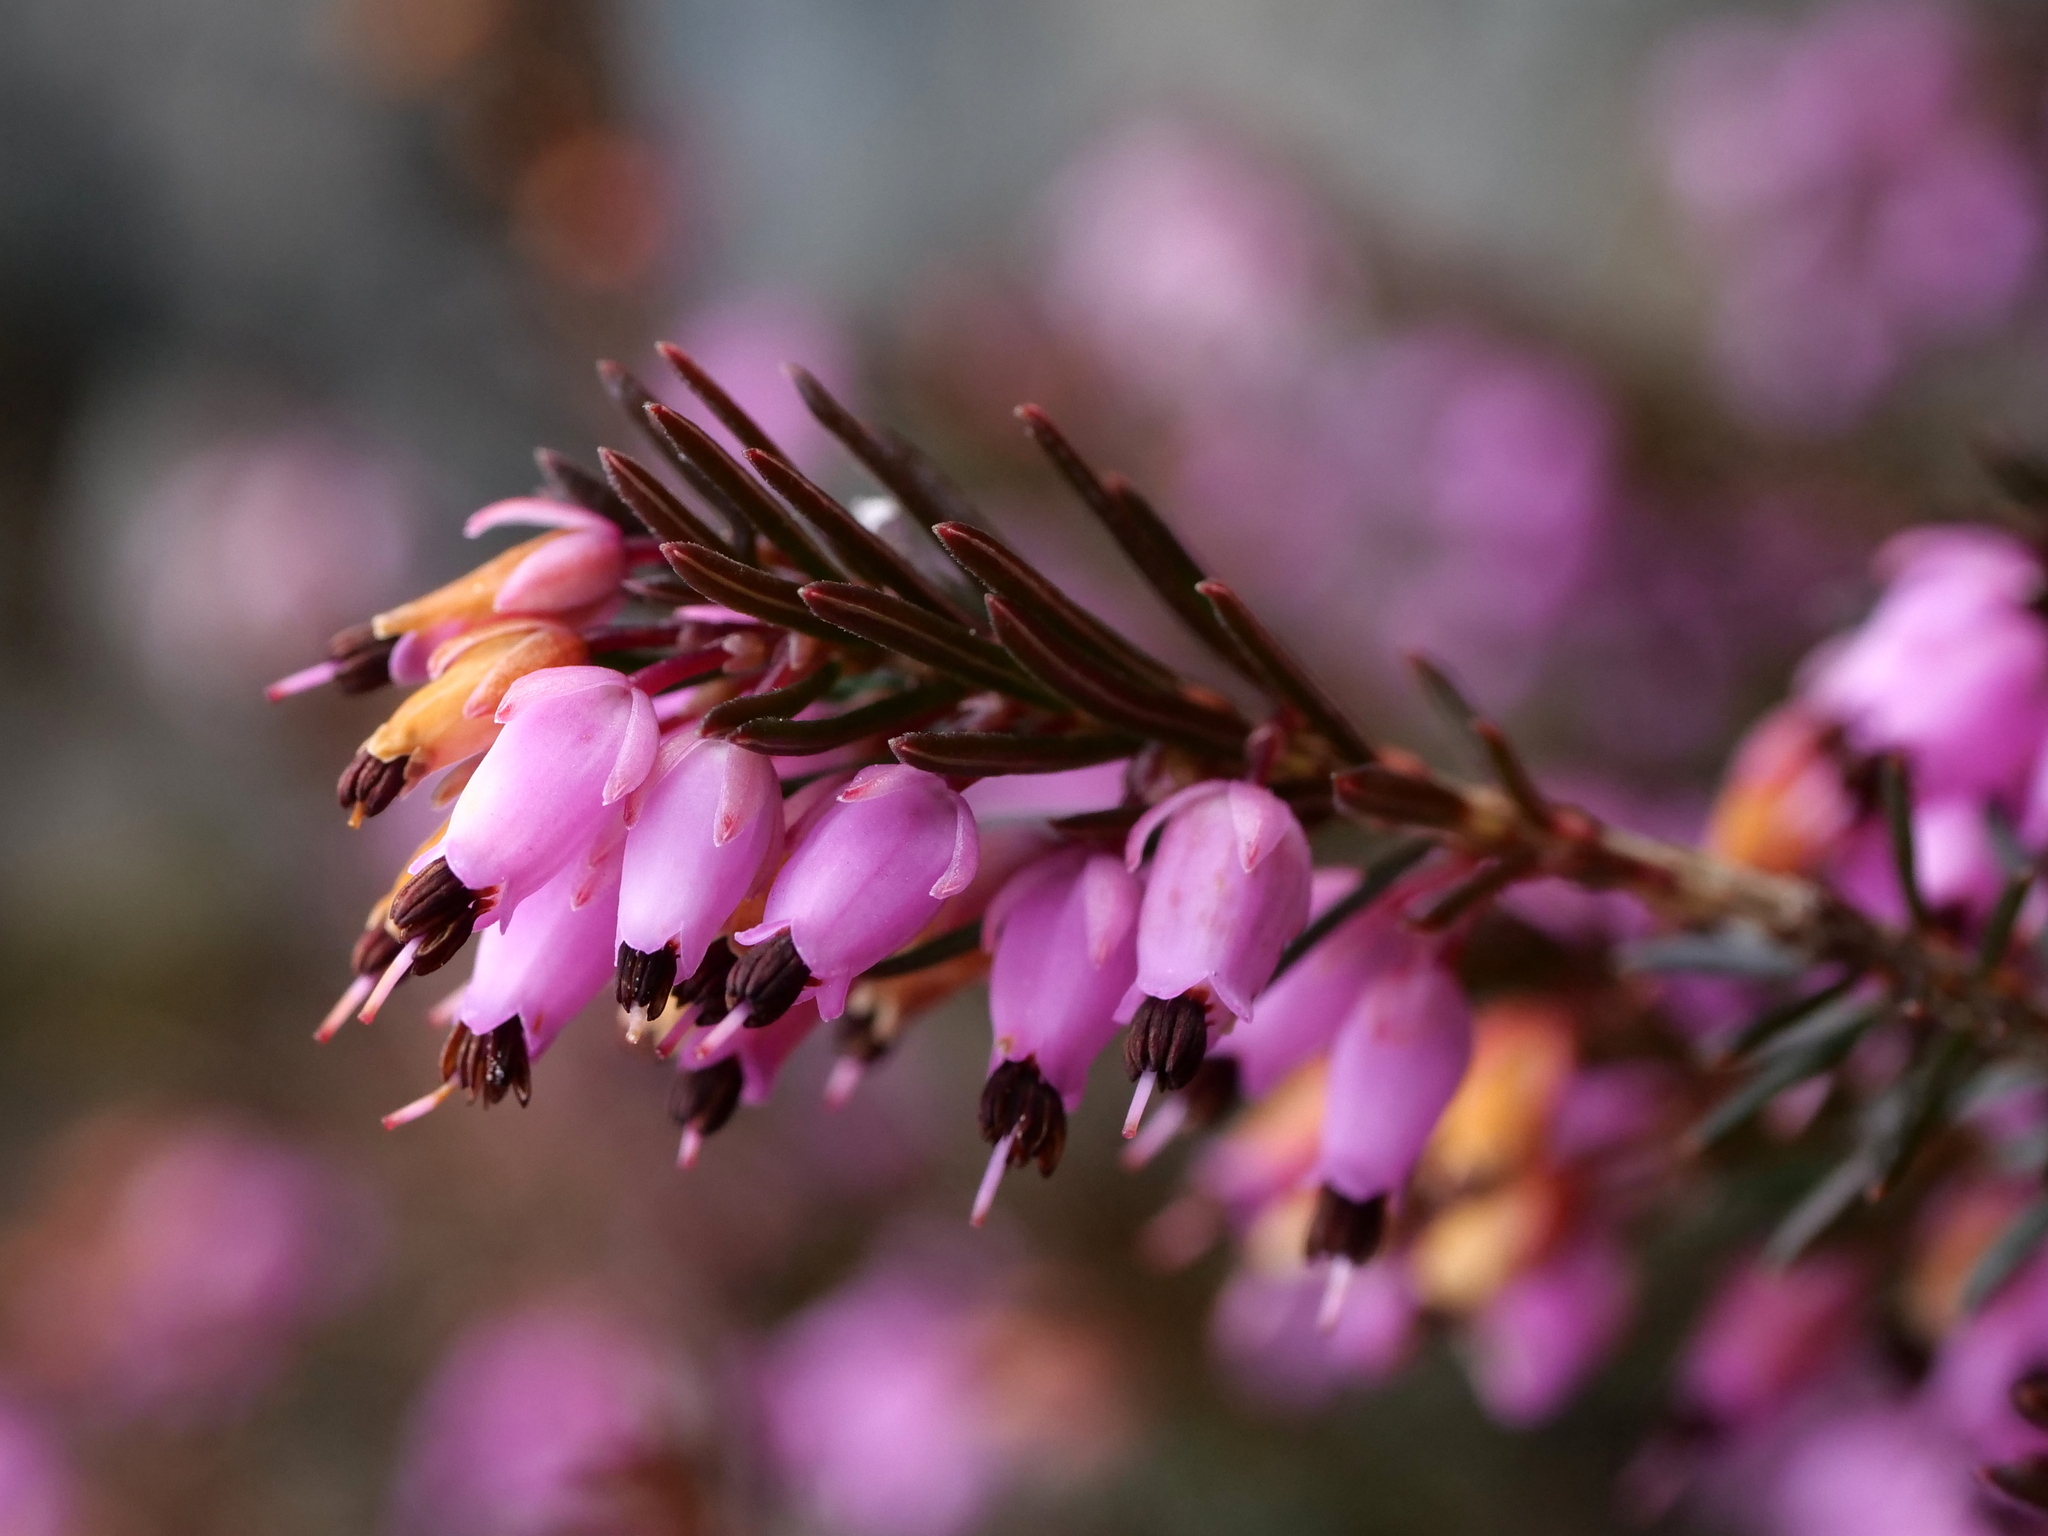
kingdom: Plantae
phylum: Tracheophyta
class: Magnoliopsida
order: Ericales
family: Ericaceae
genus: Erica
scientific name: Erica carnea
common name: Winter heath
